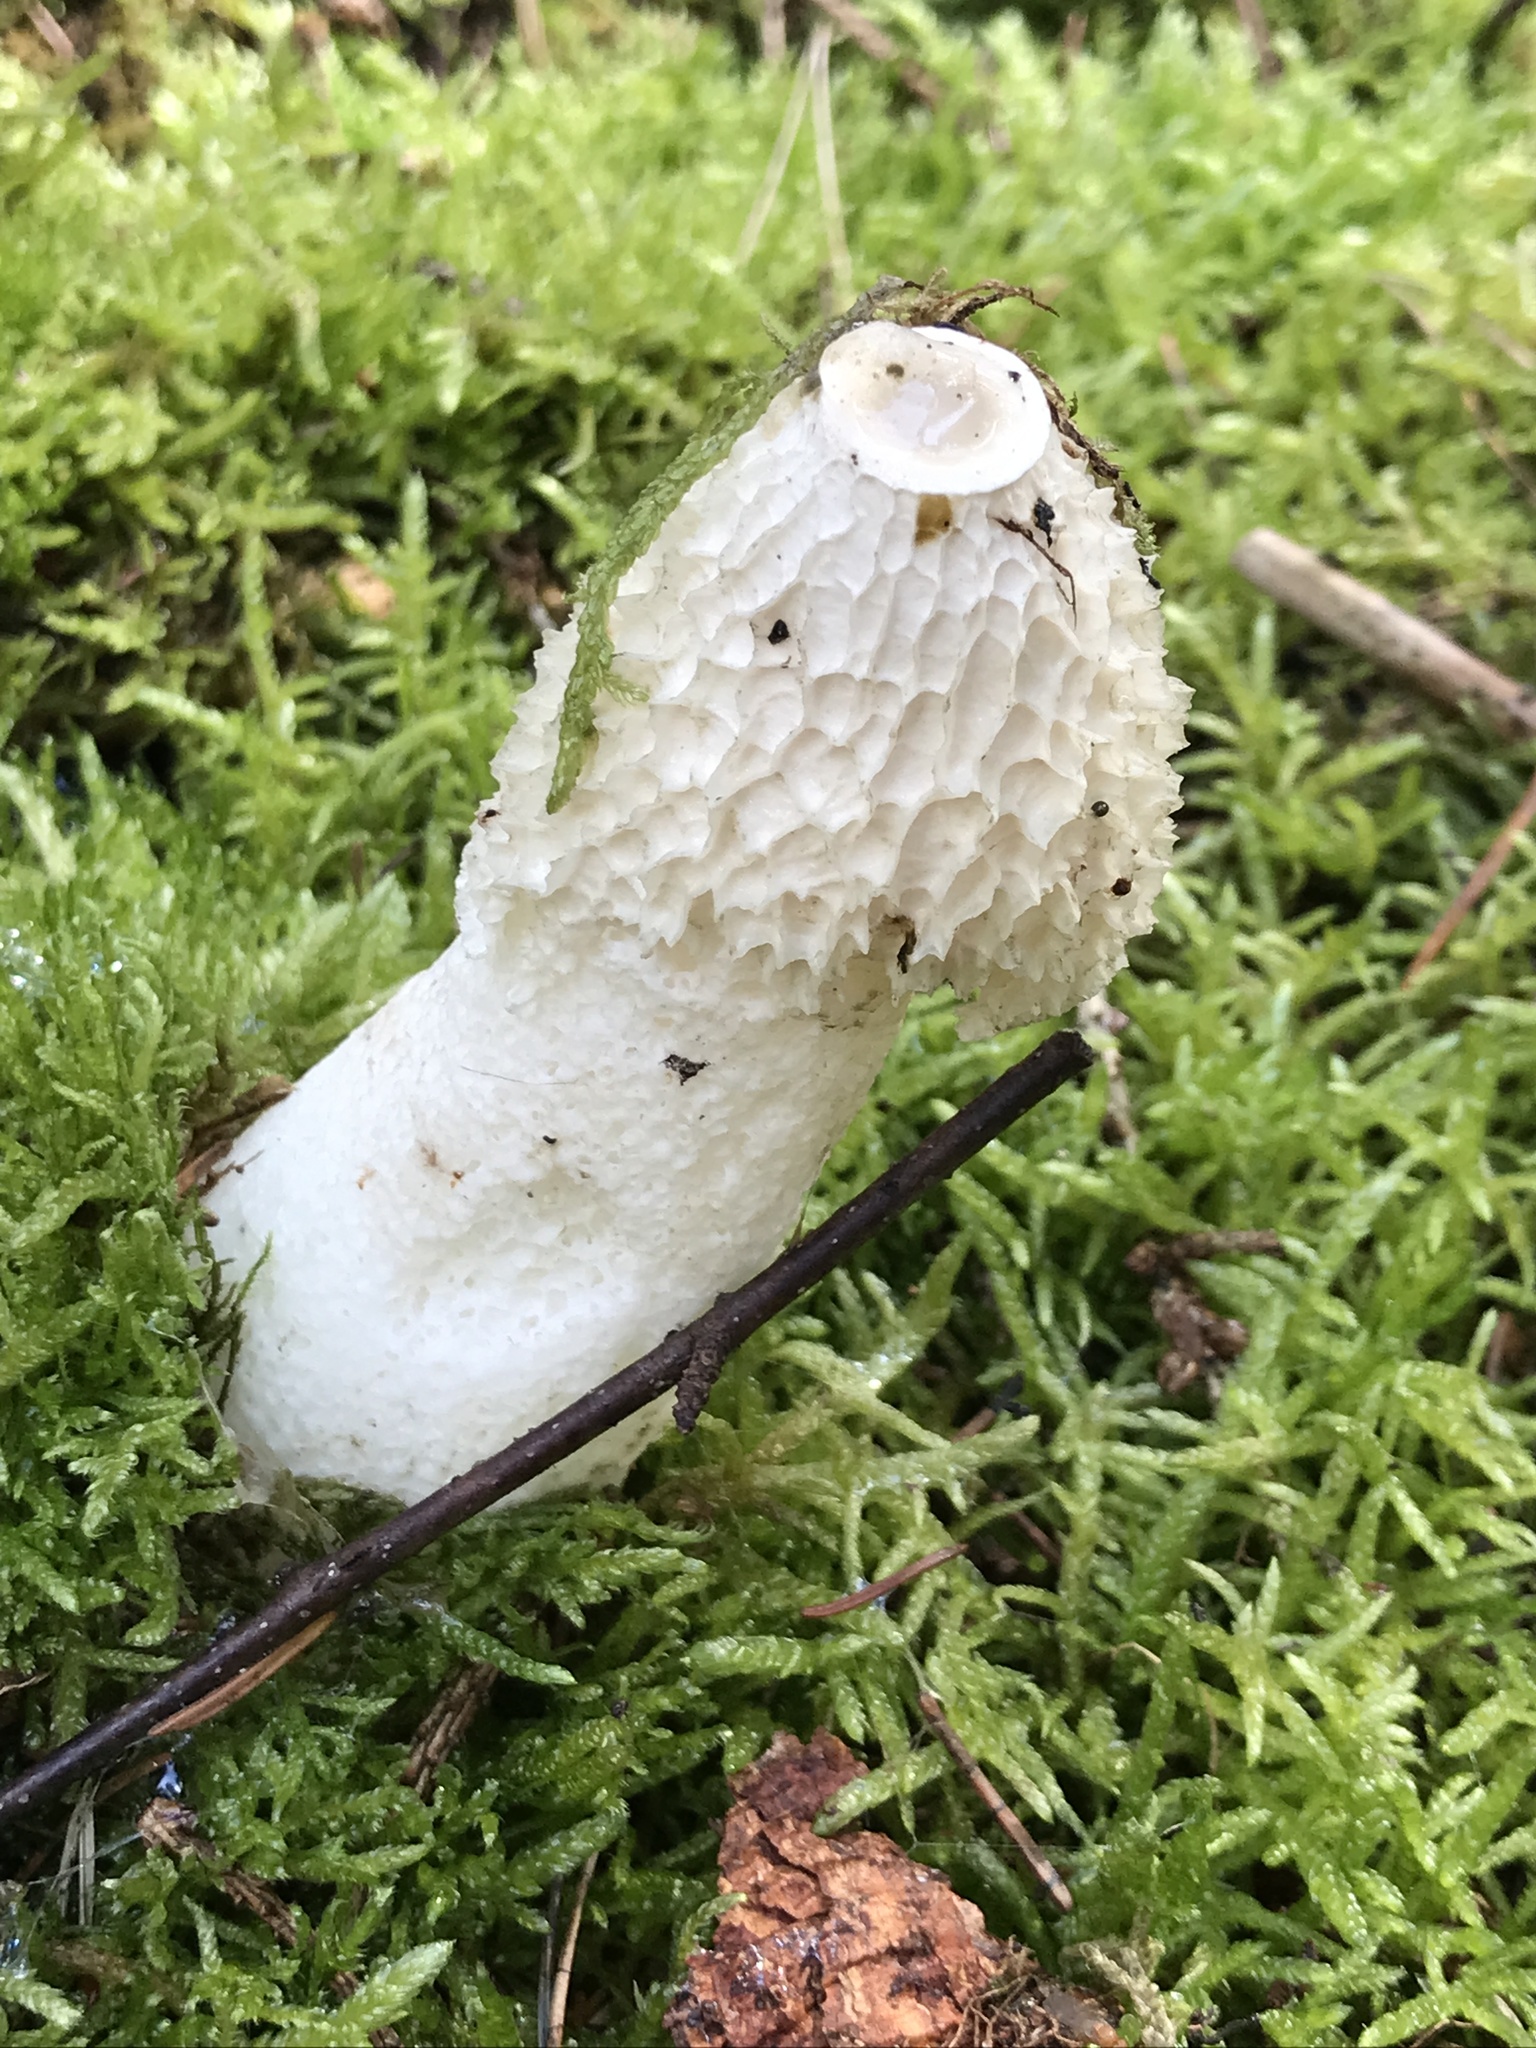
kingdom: Fungi
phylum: Basidiomycota
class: Agaricomycetes
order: Phallales
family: Phallaceae
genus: Phallus
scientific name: Phallus impudicus
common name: Common stinkhorn
